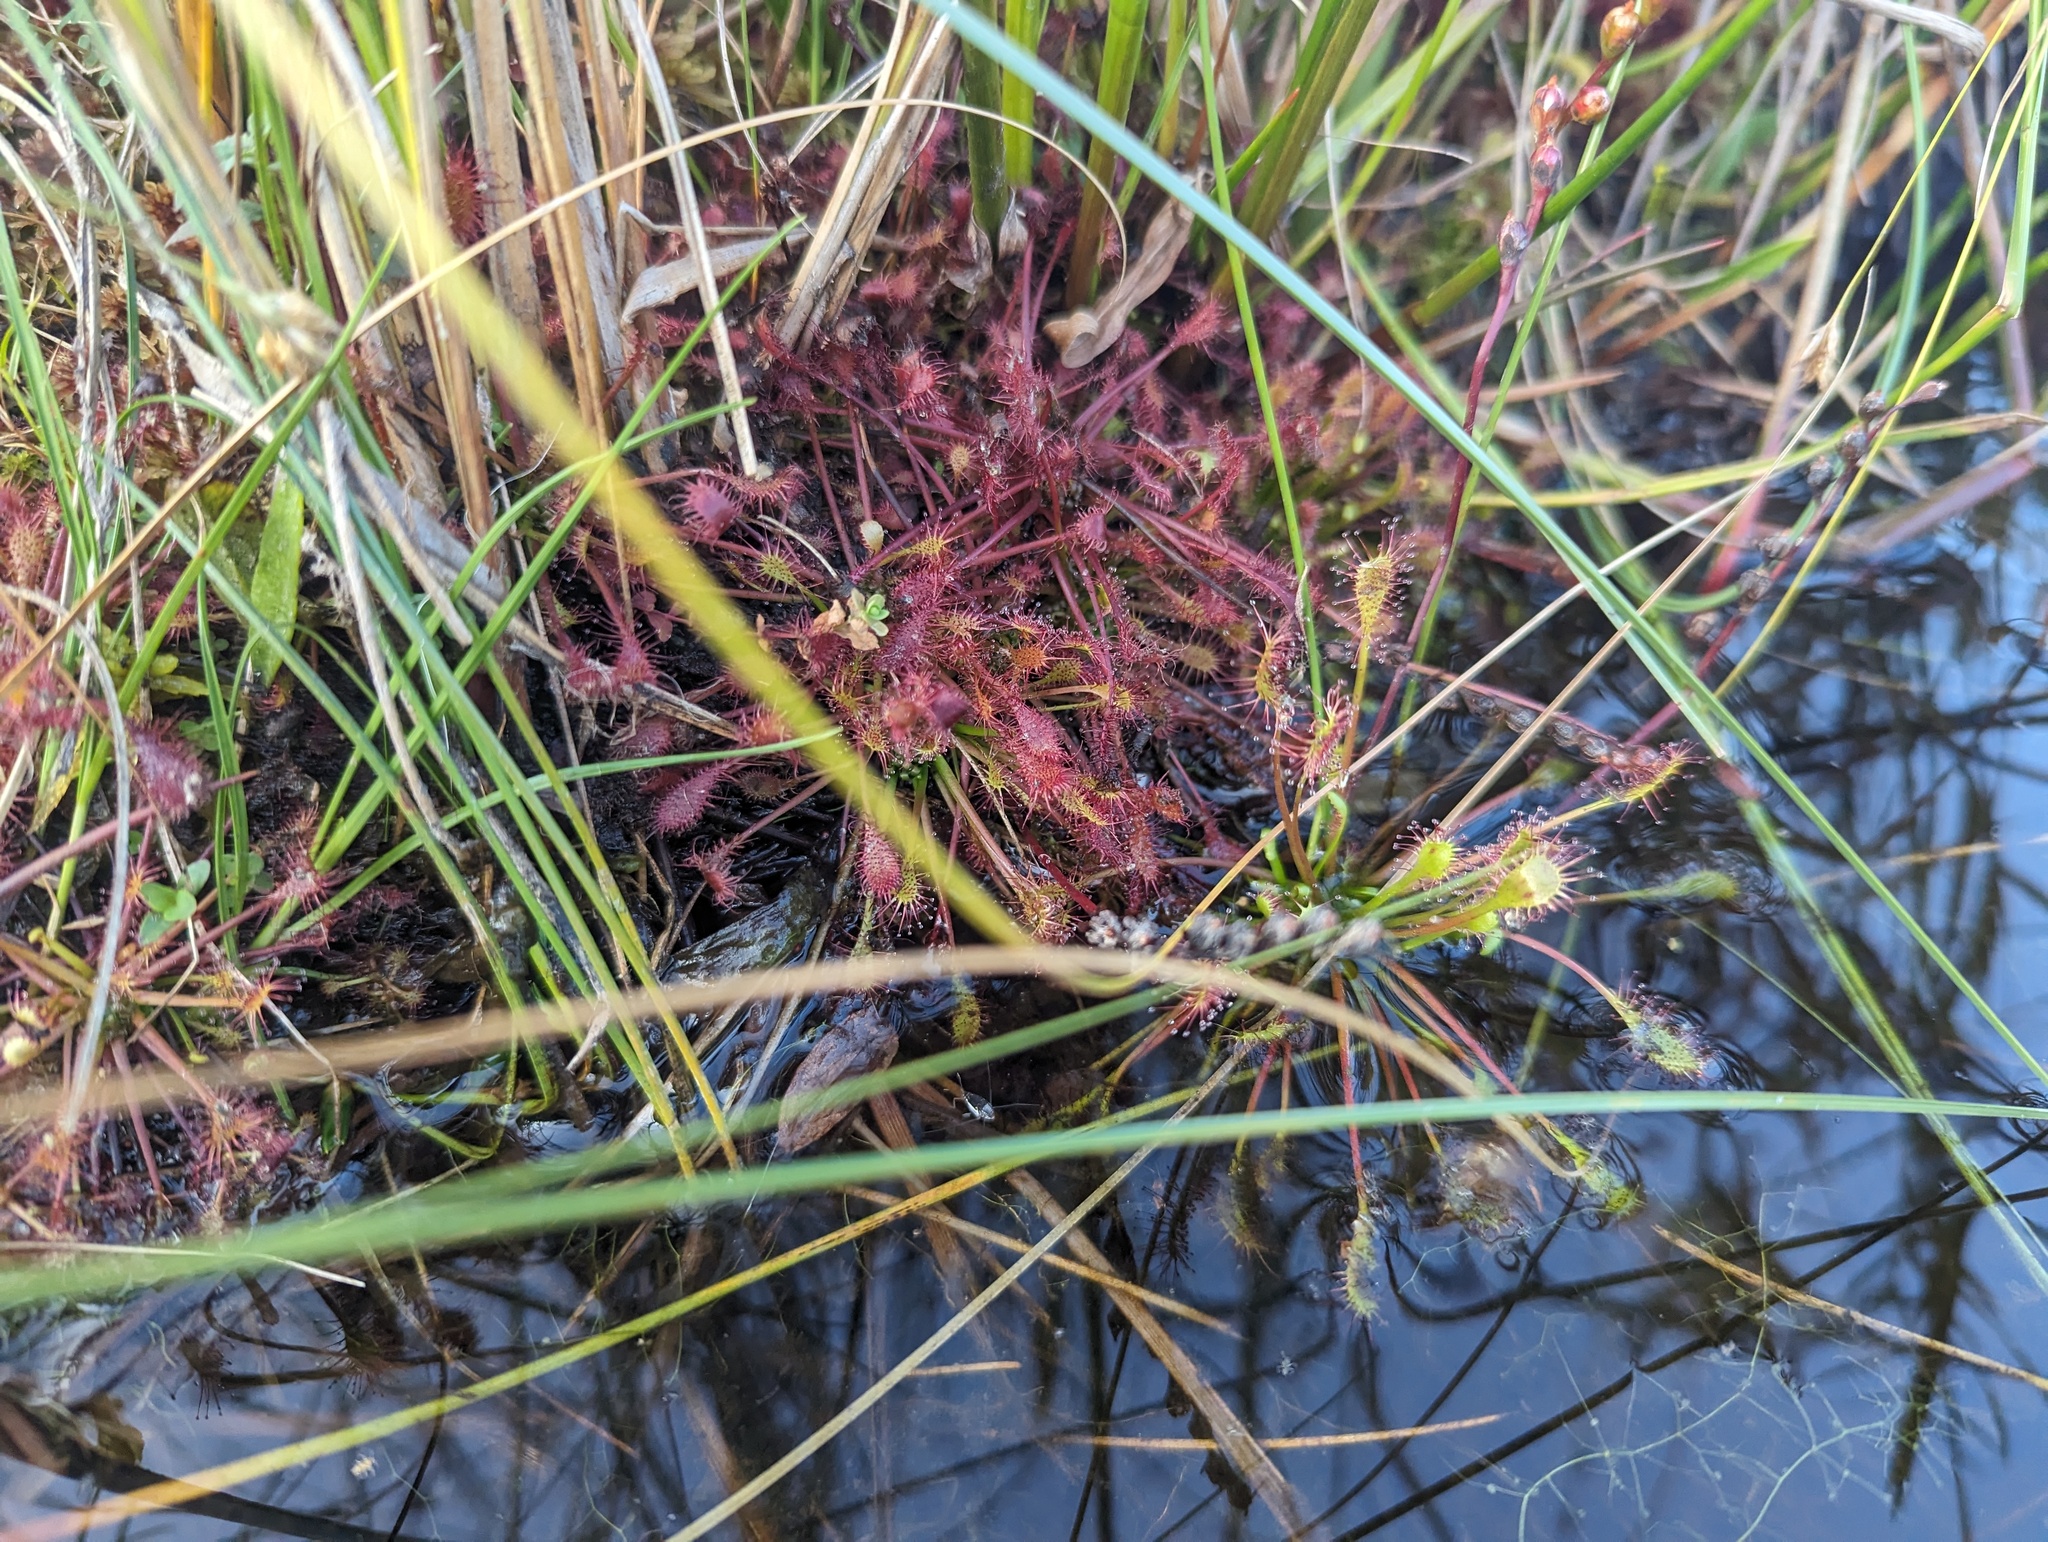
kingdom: Plantae
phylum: Tracheophyta
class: Magnoliopsida
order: Caryophyllales
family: Droseraceae
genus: Drosera
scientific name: Drosera intermedia
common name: Oblong-leaved sundew
